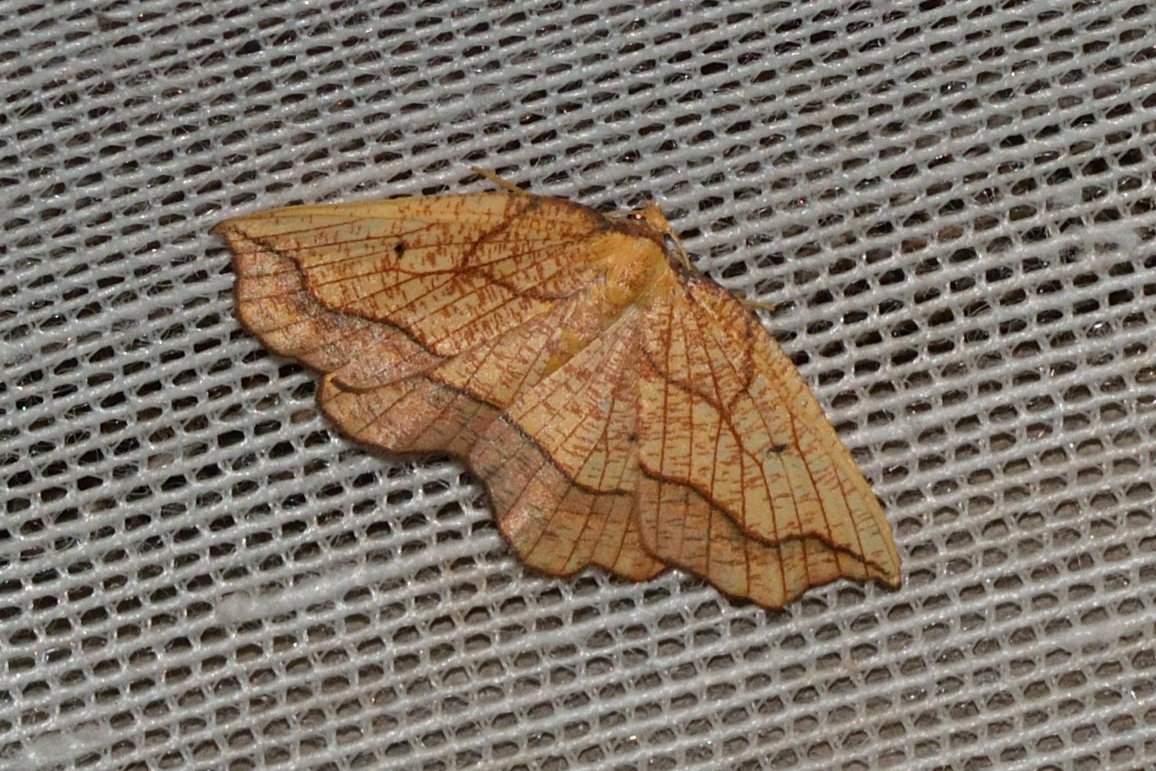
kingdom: Animalia
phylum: Arthropoda
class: Insecta
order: Lepidoptera
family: Geometridae
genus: Epione
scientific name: Epione repandaria
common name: Bordered beauty
